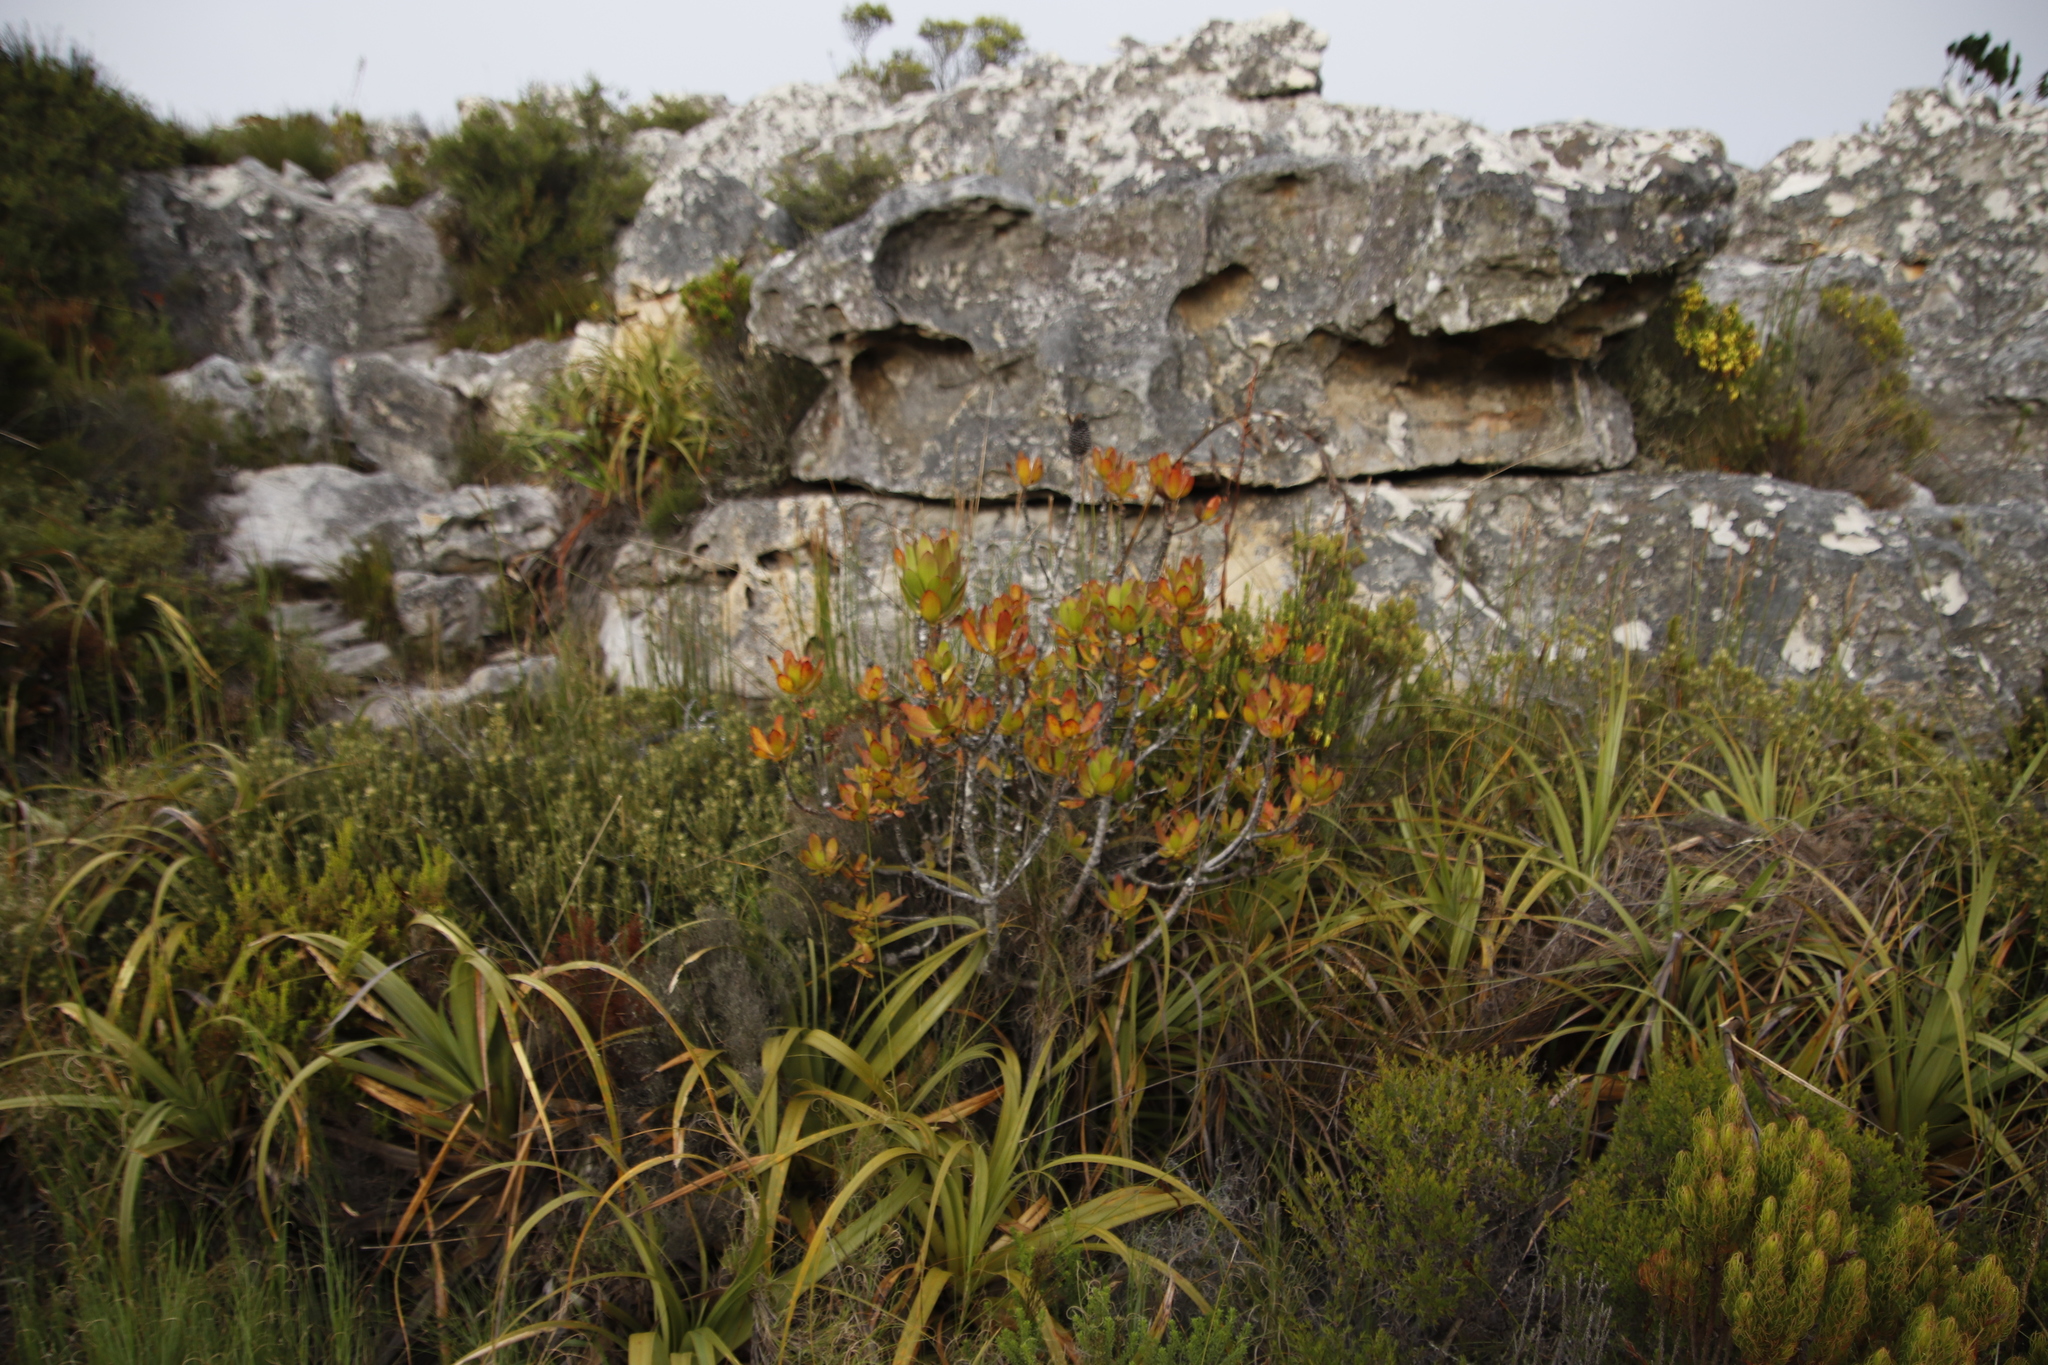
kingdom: Plantae
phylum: Tracheophyta
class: Magnoliopsida
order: Proteales
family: Proteaceae
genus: Leucadendron
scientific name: Leucadendron strobilinum
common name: Mountain rose
